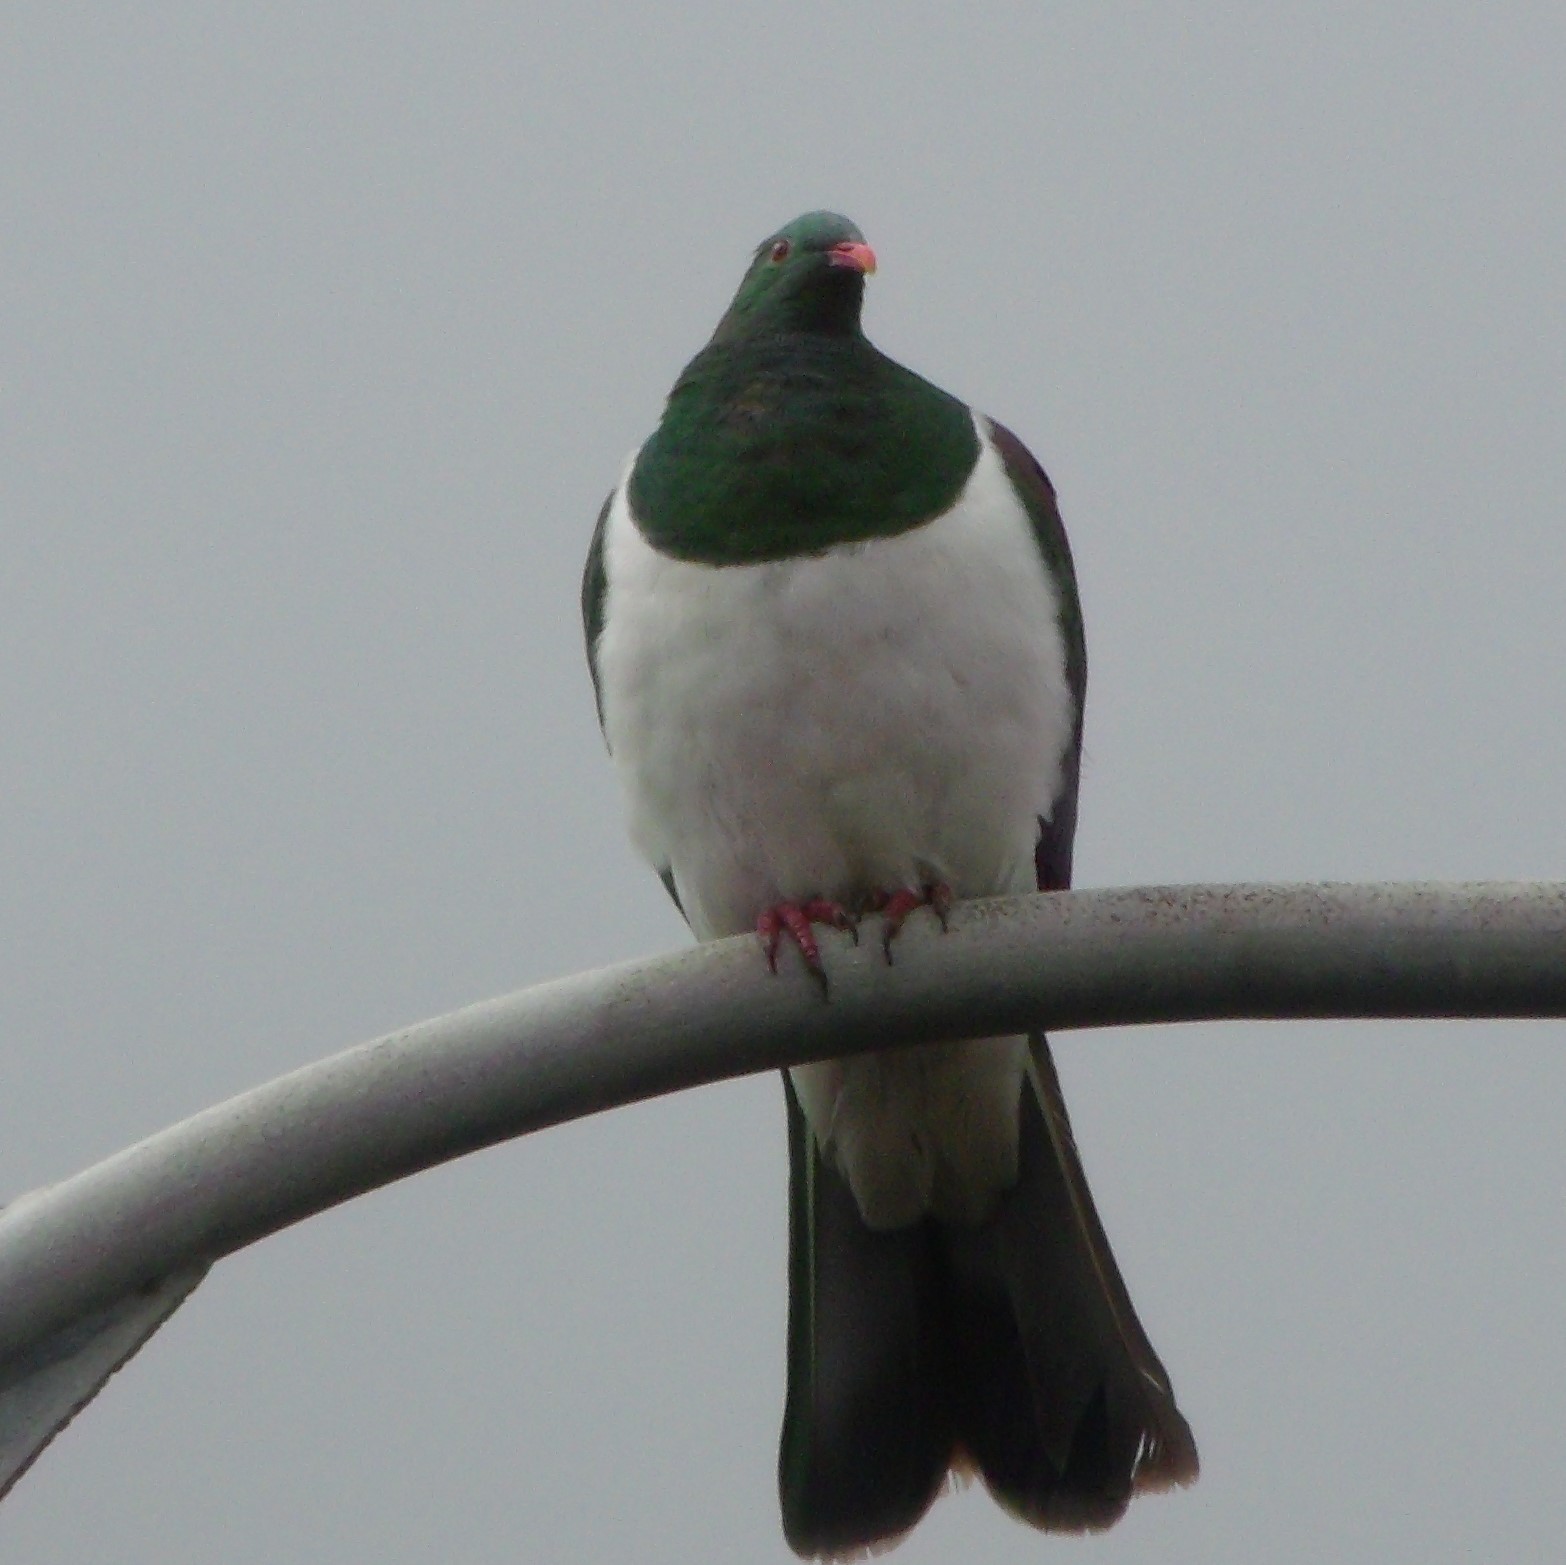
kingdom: Animalia
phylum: Chordata
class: Aves
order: Columbiformes
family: Columbidae
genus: Hemiphaga
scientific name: Hemiphaga novaeseelandiae
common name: New zealand pigeon
